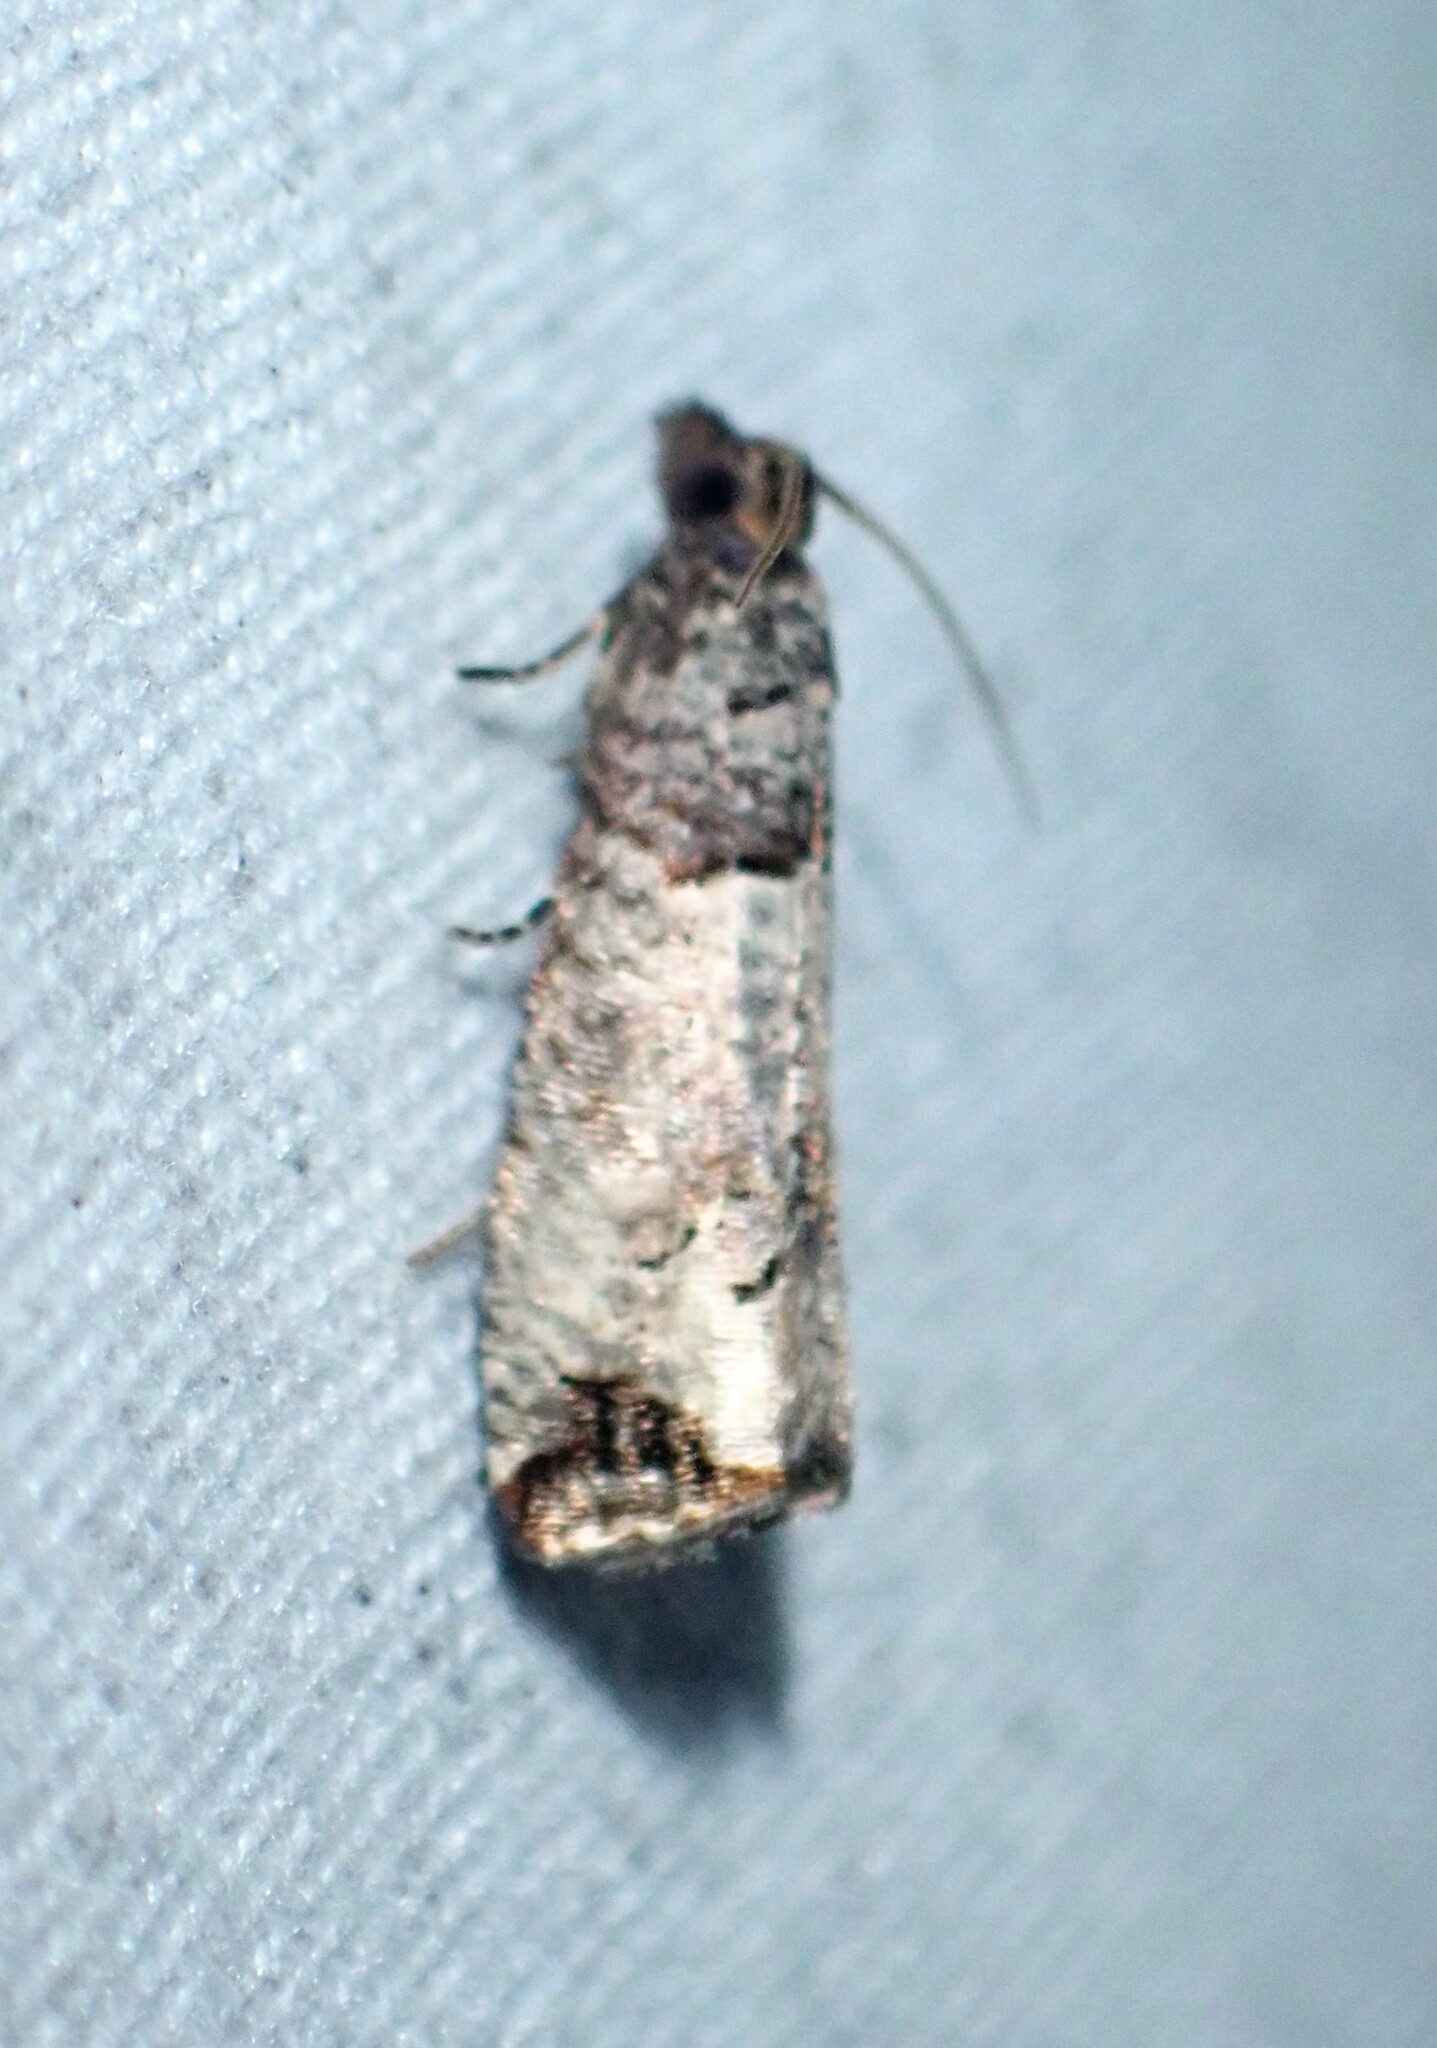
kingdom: Animalia
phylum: Arthropoda
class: Insecta
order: Lepidoptera
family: Tortricidae
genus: Notocelia
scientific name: Notocelia culminana
